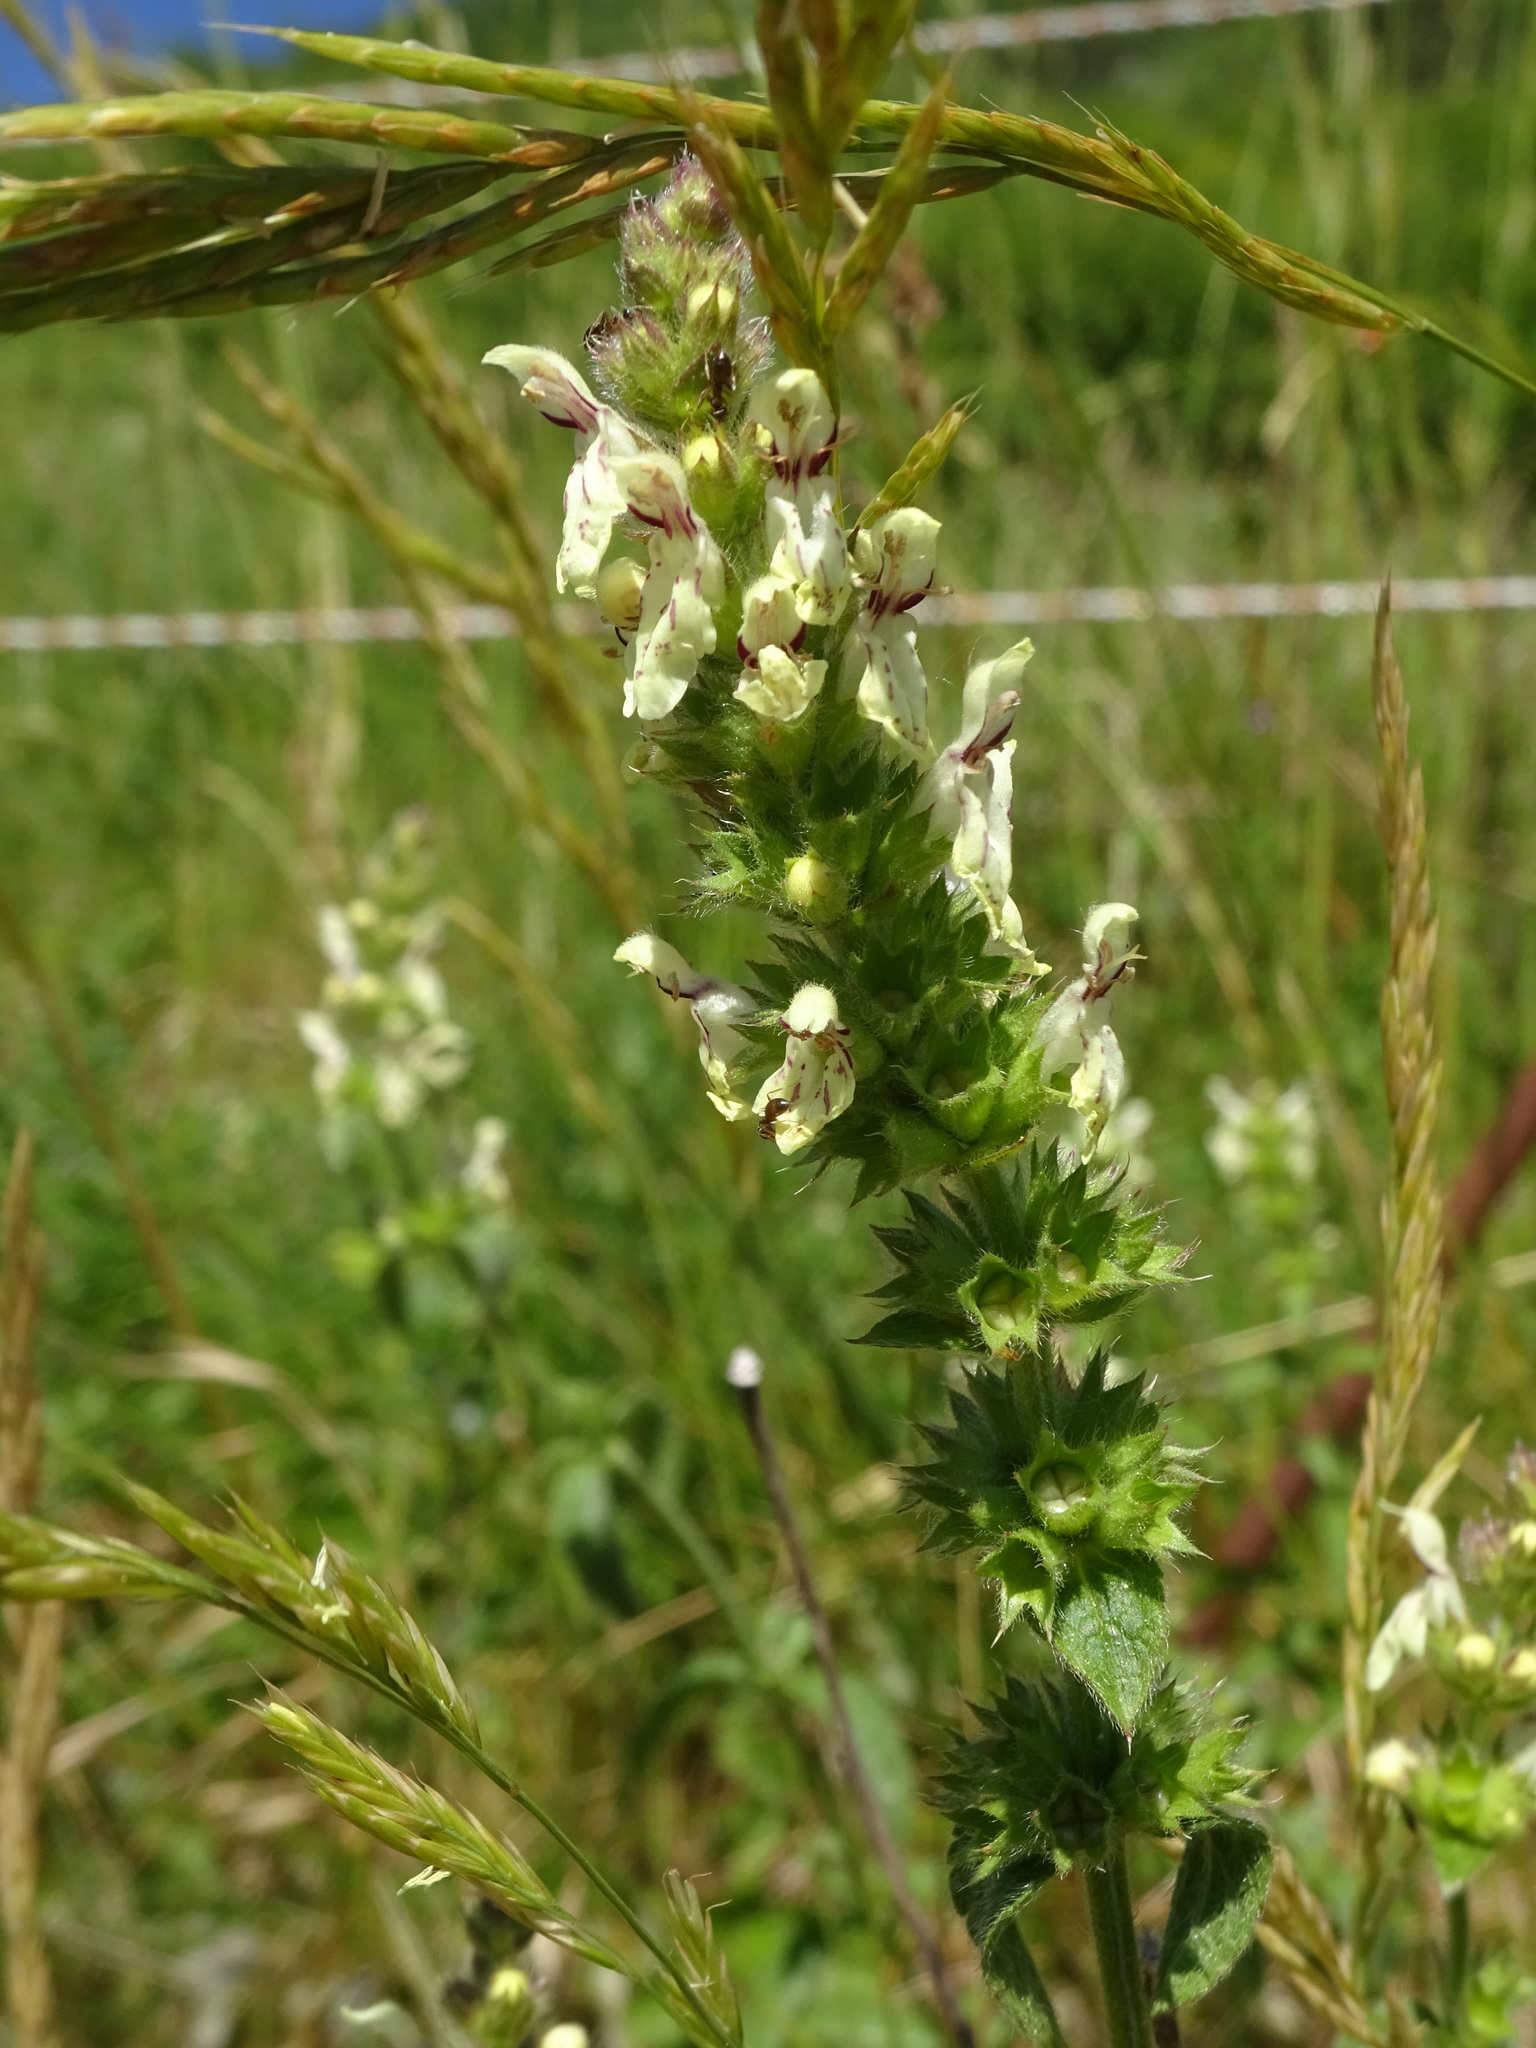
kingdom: Plantae
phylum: Tracheophyta
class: Magnoliopsida
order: Lamiales
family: Lamiaceae
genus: Stachys
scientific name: Stachys recta
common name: Perennial yellow-woundwort
